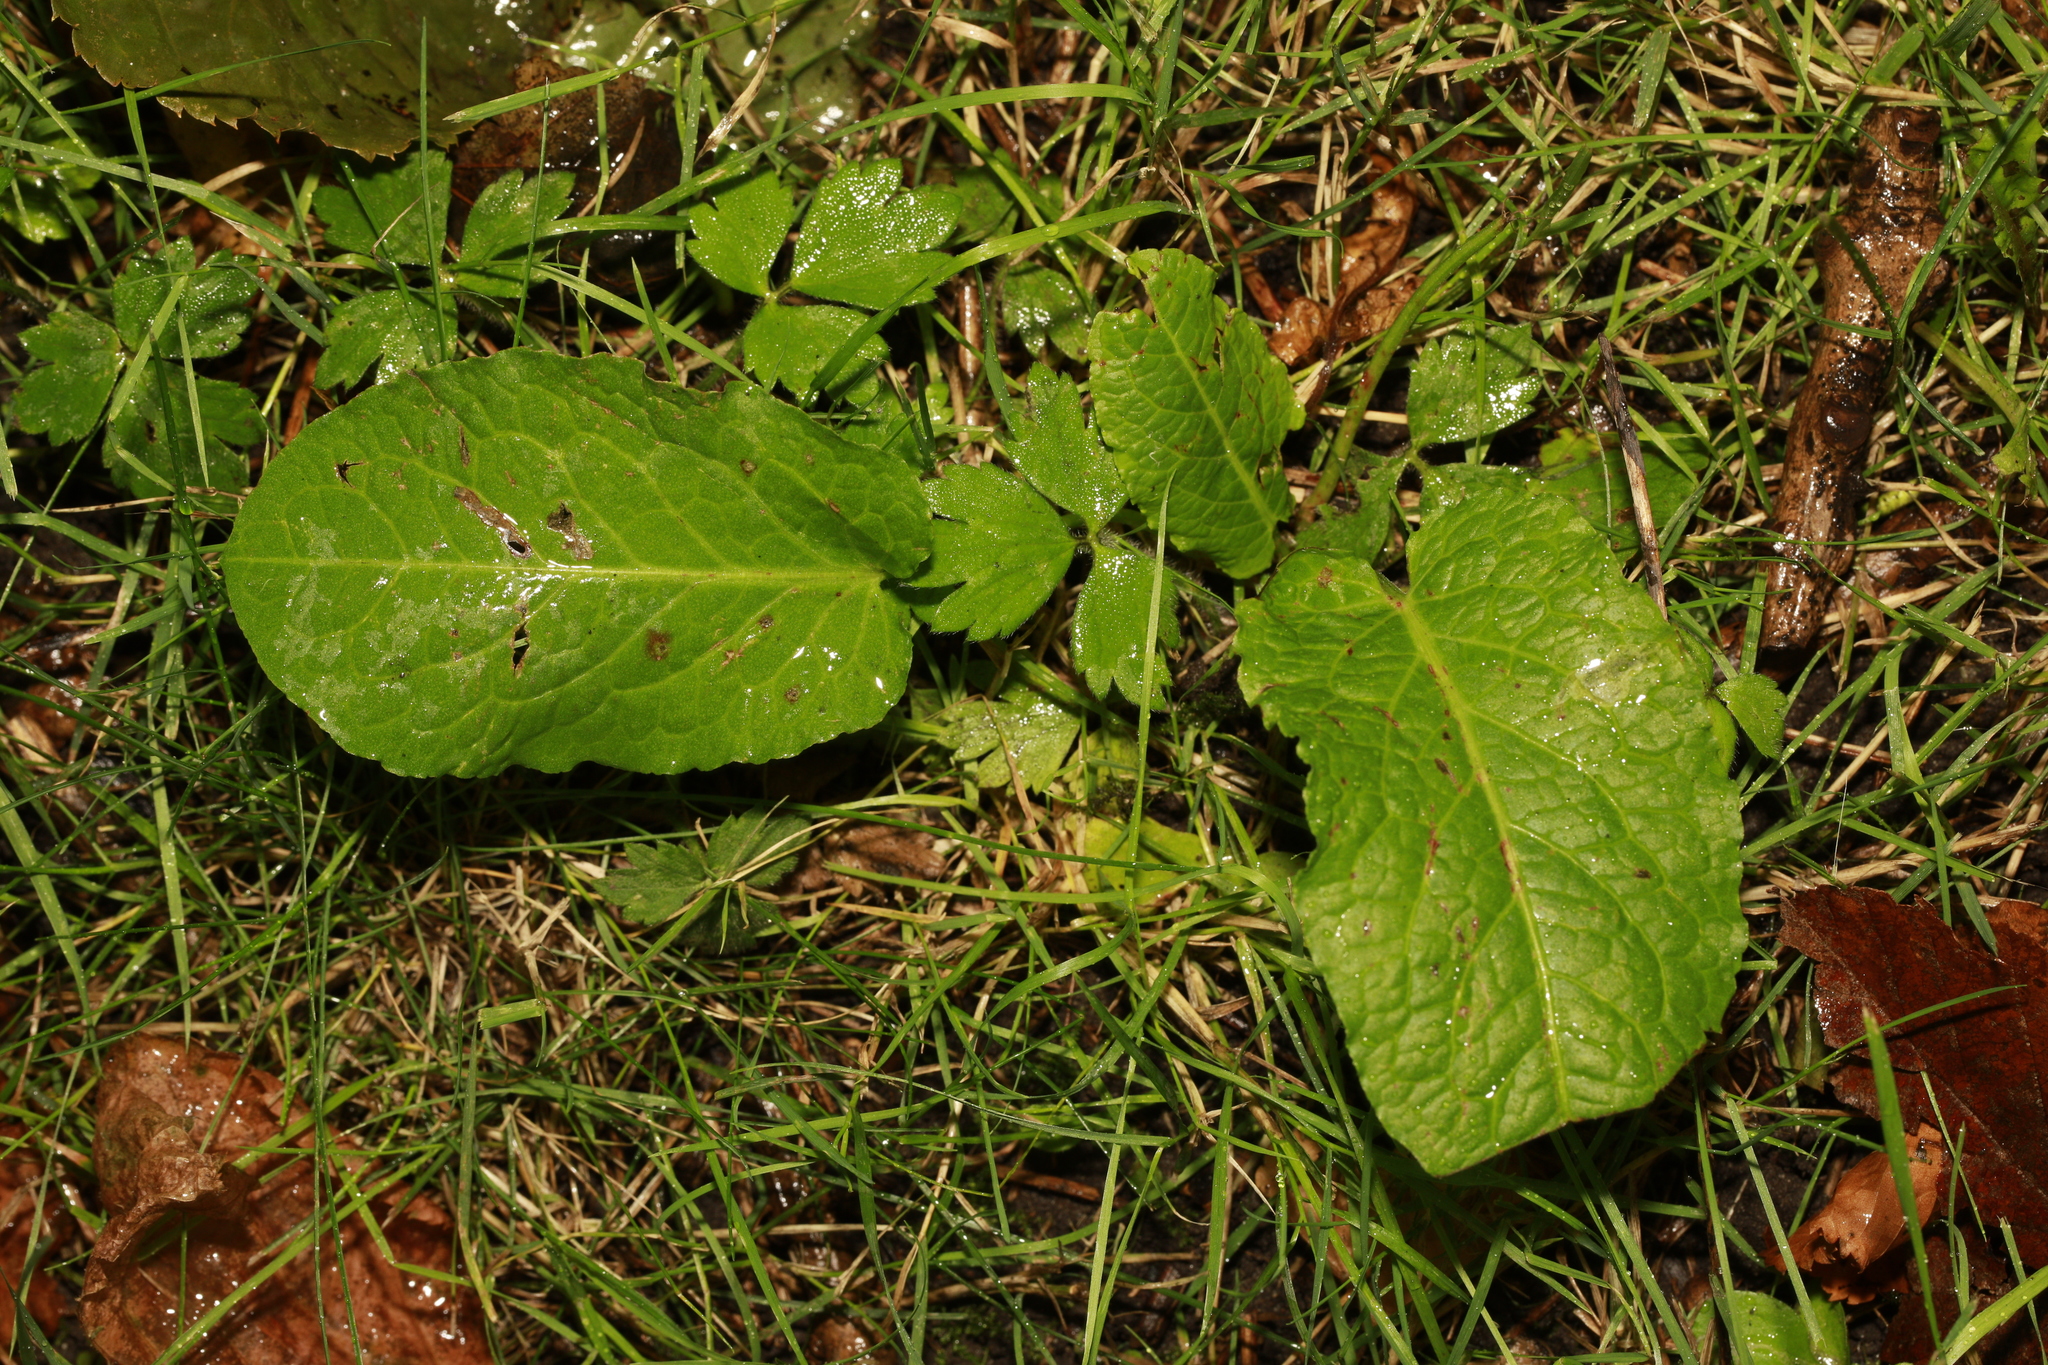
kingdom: Plantae
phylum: Tracheophyta
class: Magnoliopsida
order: Caryophyllales
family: Polygonaceae
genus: Rumex
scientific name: Rumex obtusifolius
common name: Bitter dock
